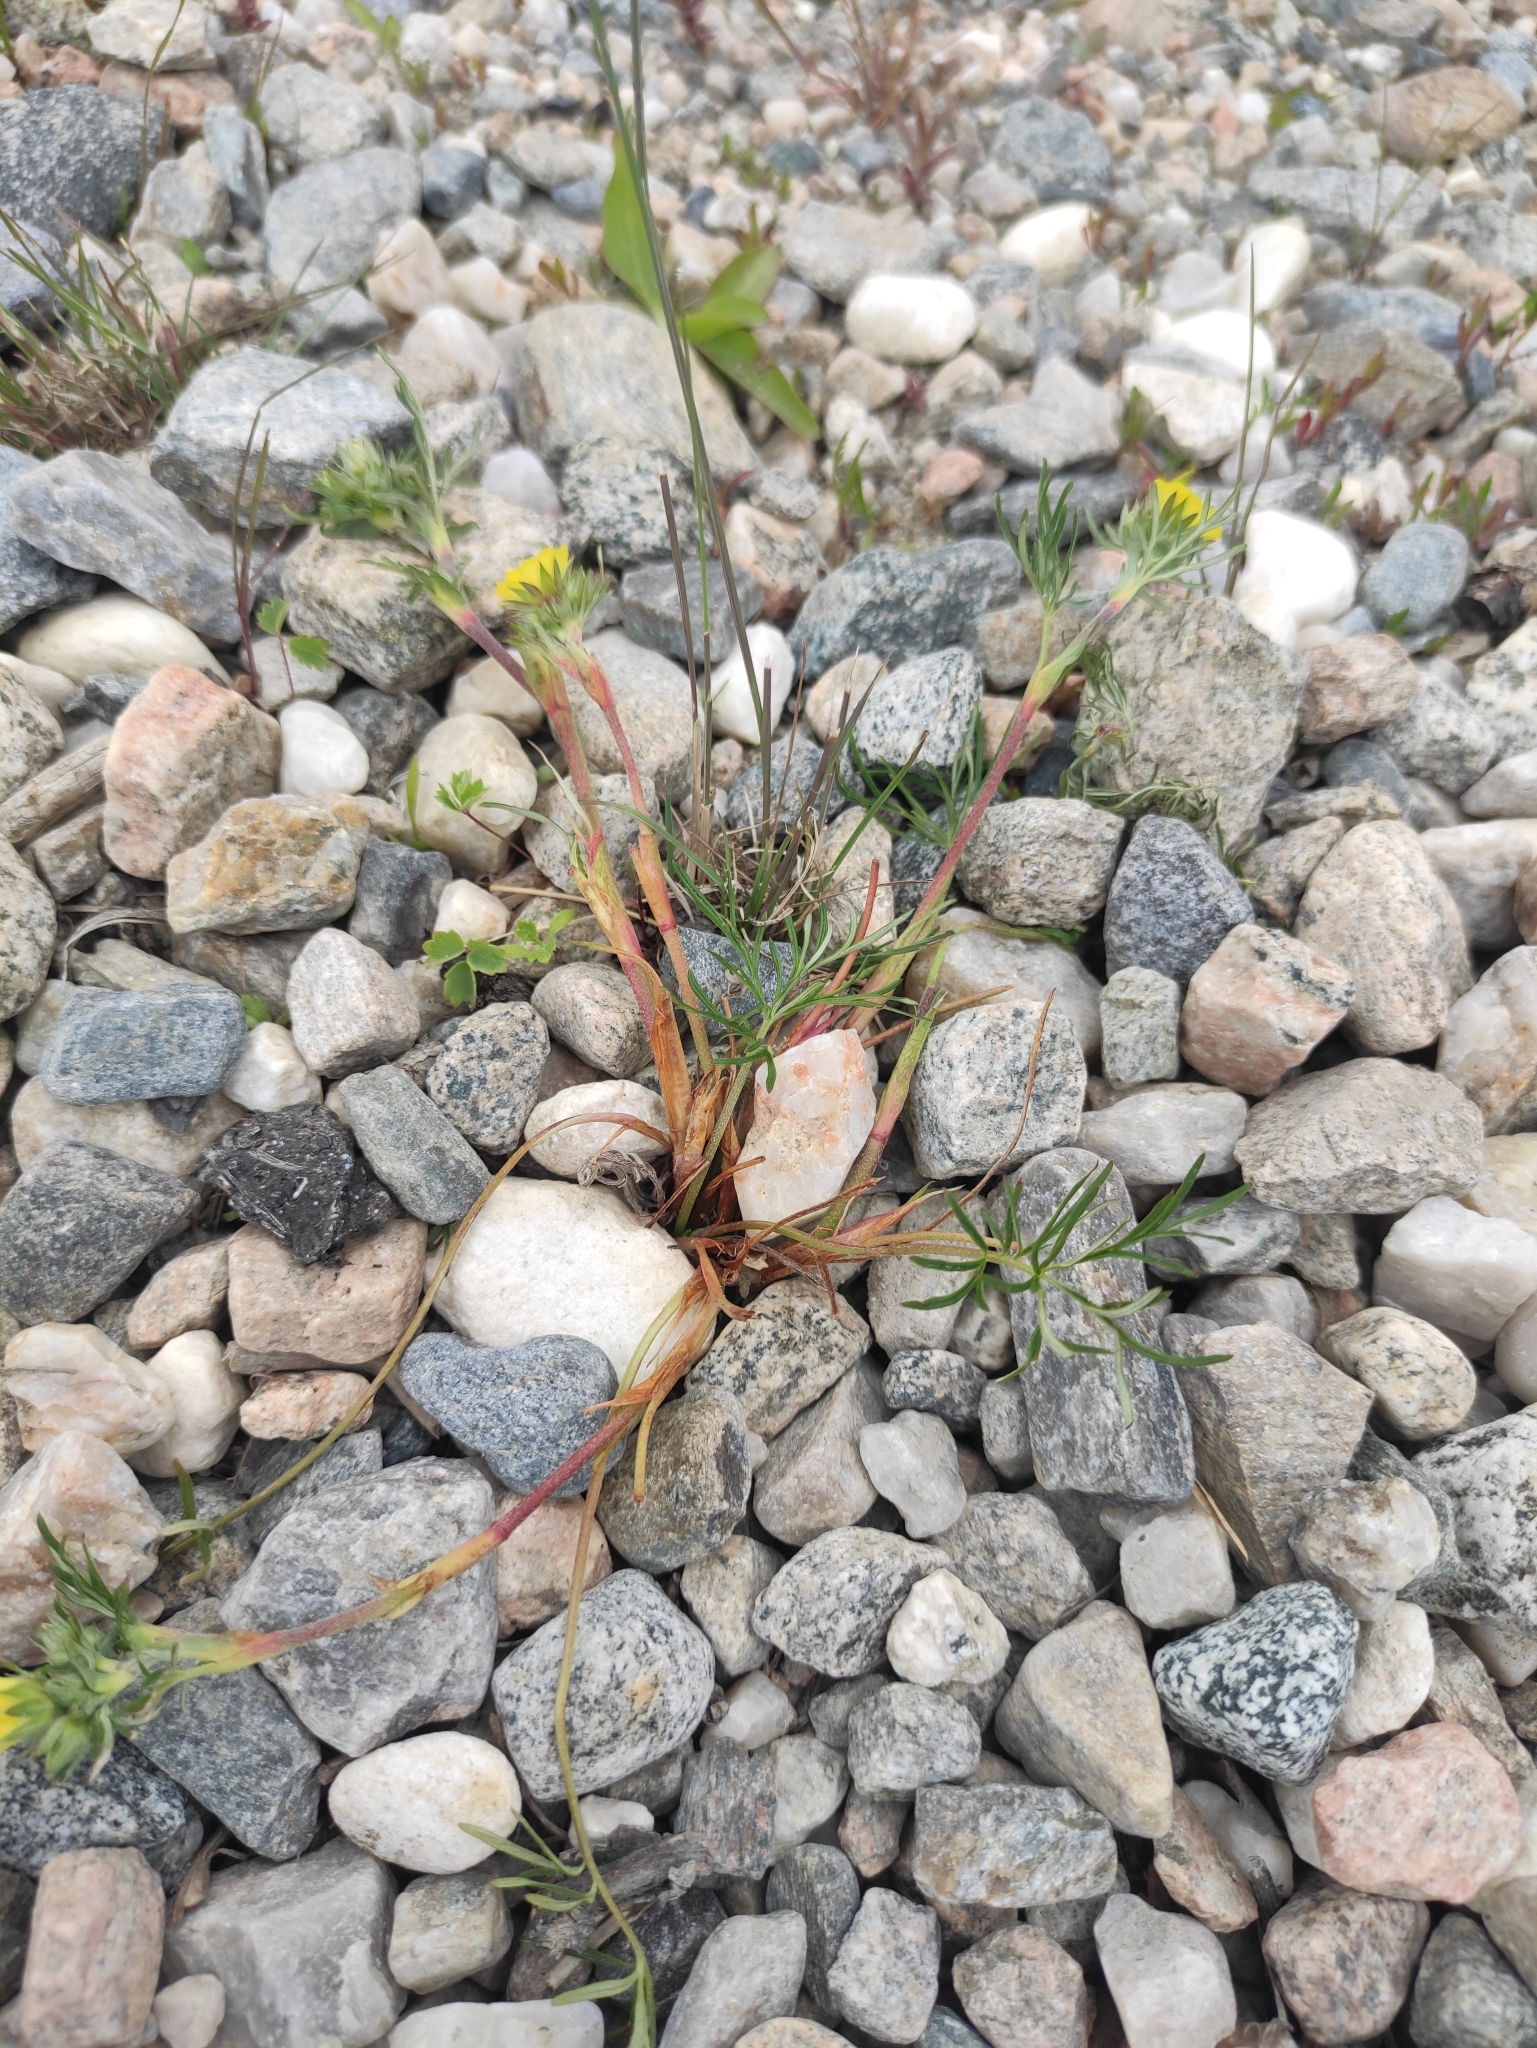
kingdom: Plantae
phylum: Tracheophyta
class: Magnoliopsida
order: Rosales
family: Rosaceae
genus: Potentilla
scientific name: Potentilla multifida
